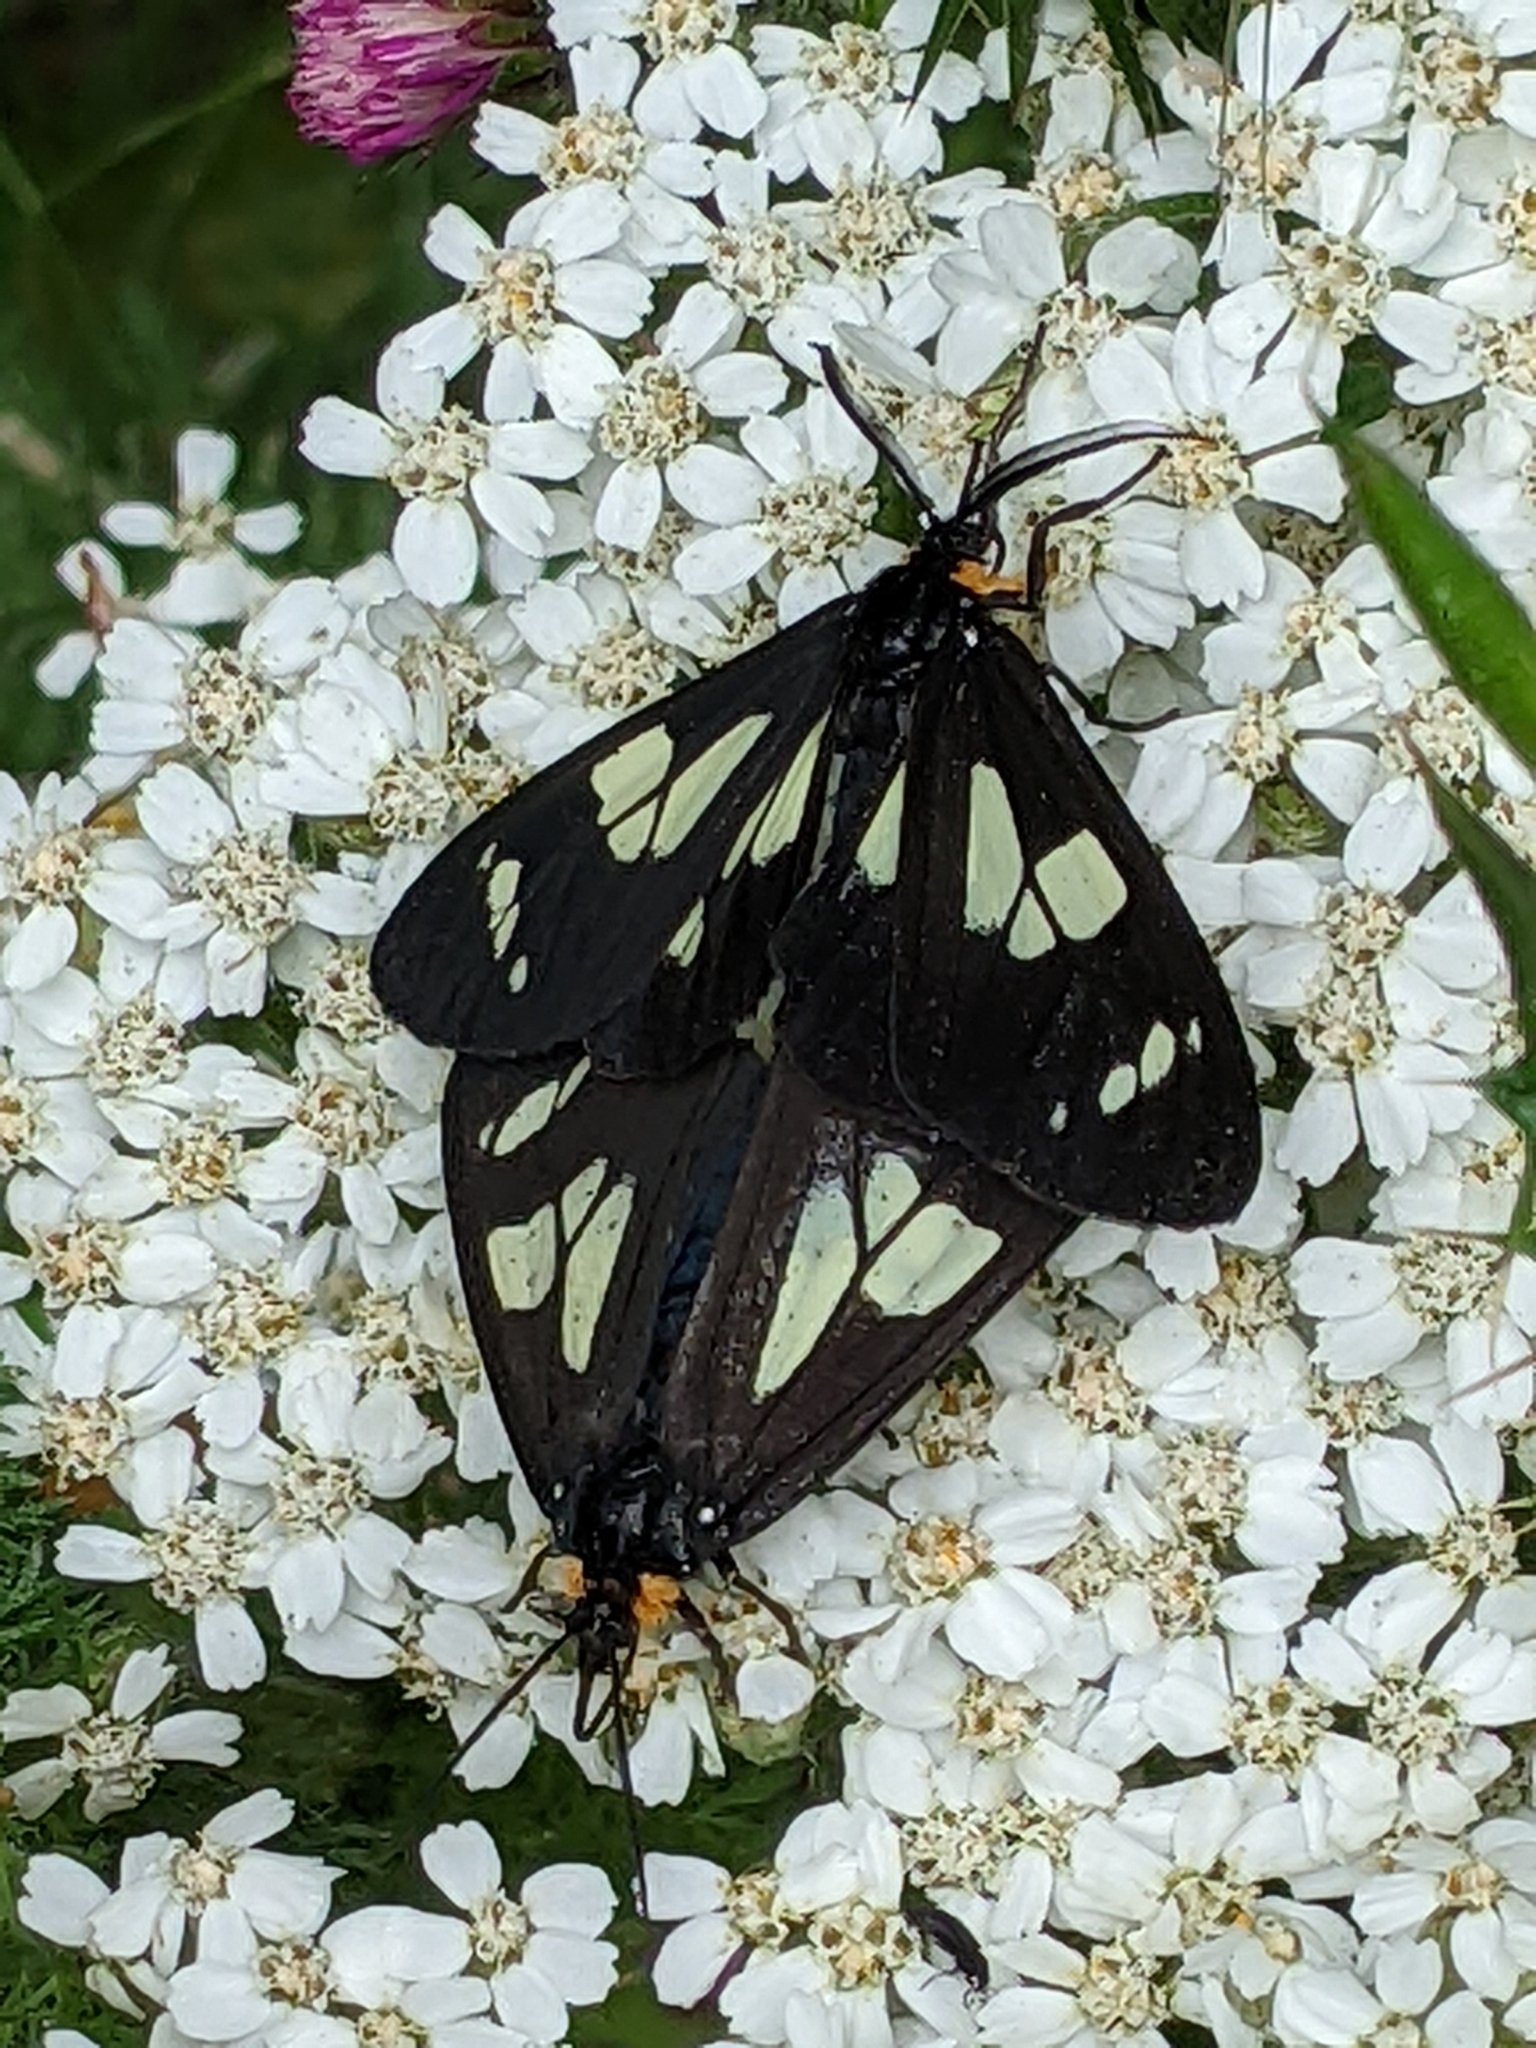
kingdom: Animalia
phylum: Arthropoda
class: Insecta
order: Lepidoptera
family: Erebidae
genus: Gnophaela
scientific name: Gnophaela latipennis
